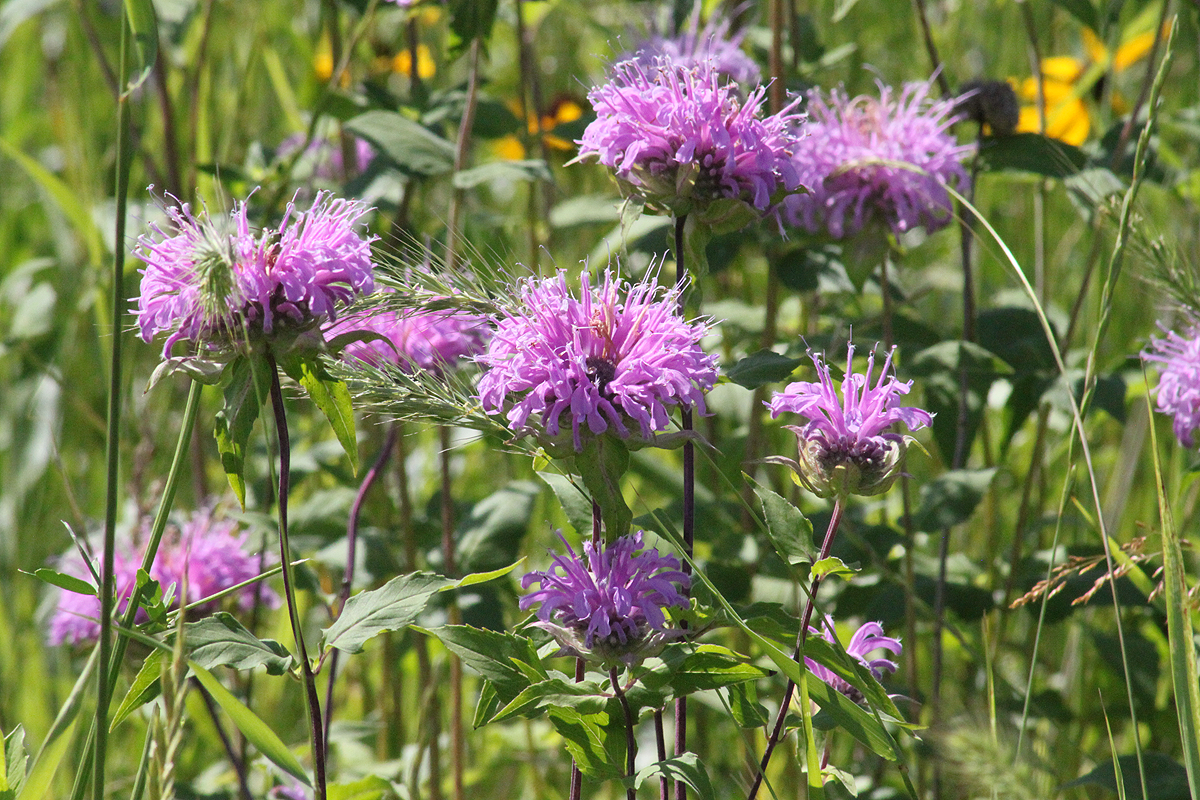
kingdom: Plantae
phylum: Tracheophyta
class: Magnoliopsida
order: Lamiales
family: Lamiaceae
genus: Monarda
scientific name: Monarda fistulosa
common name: Purple beebalm
